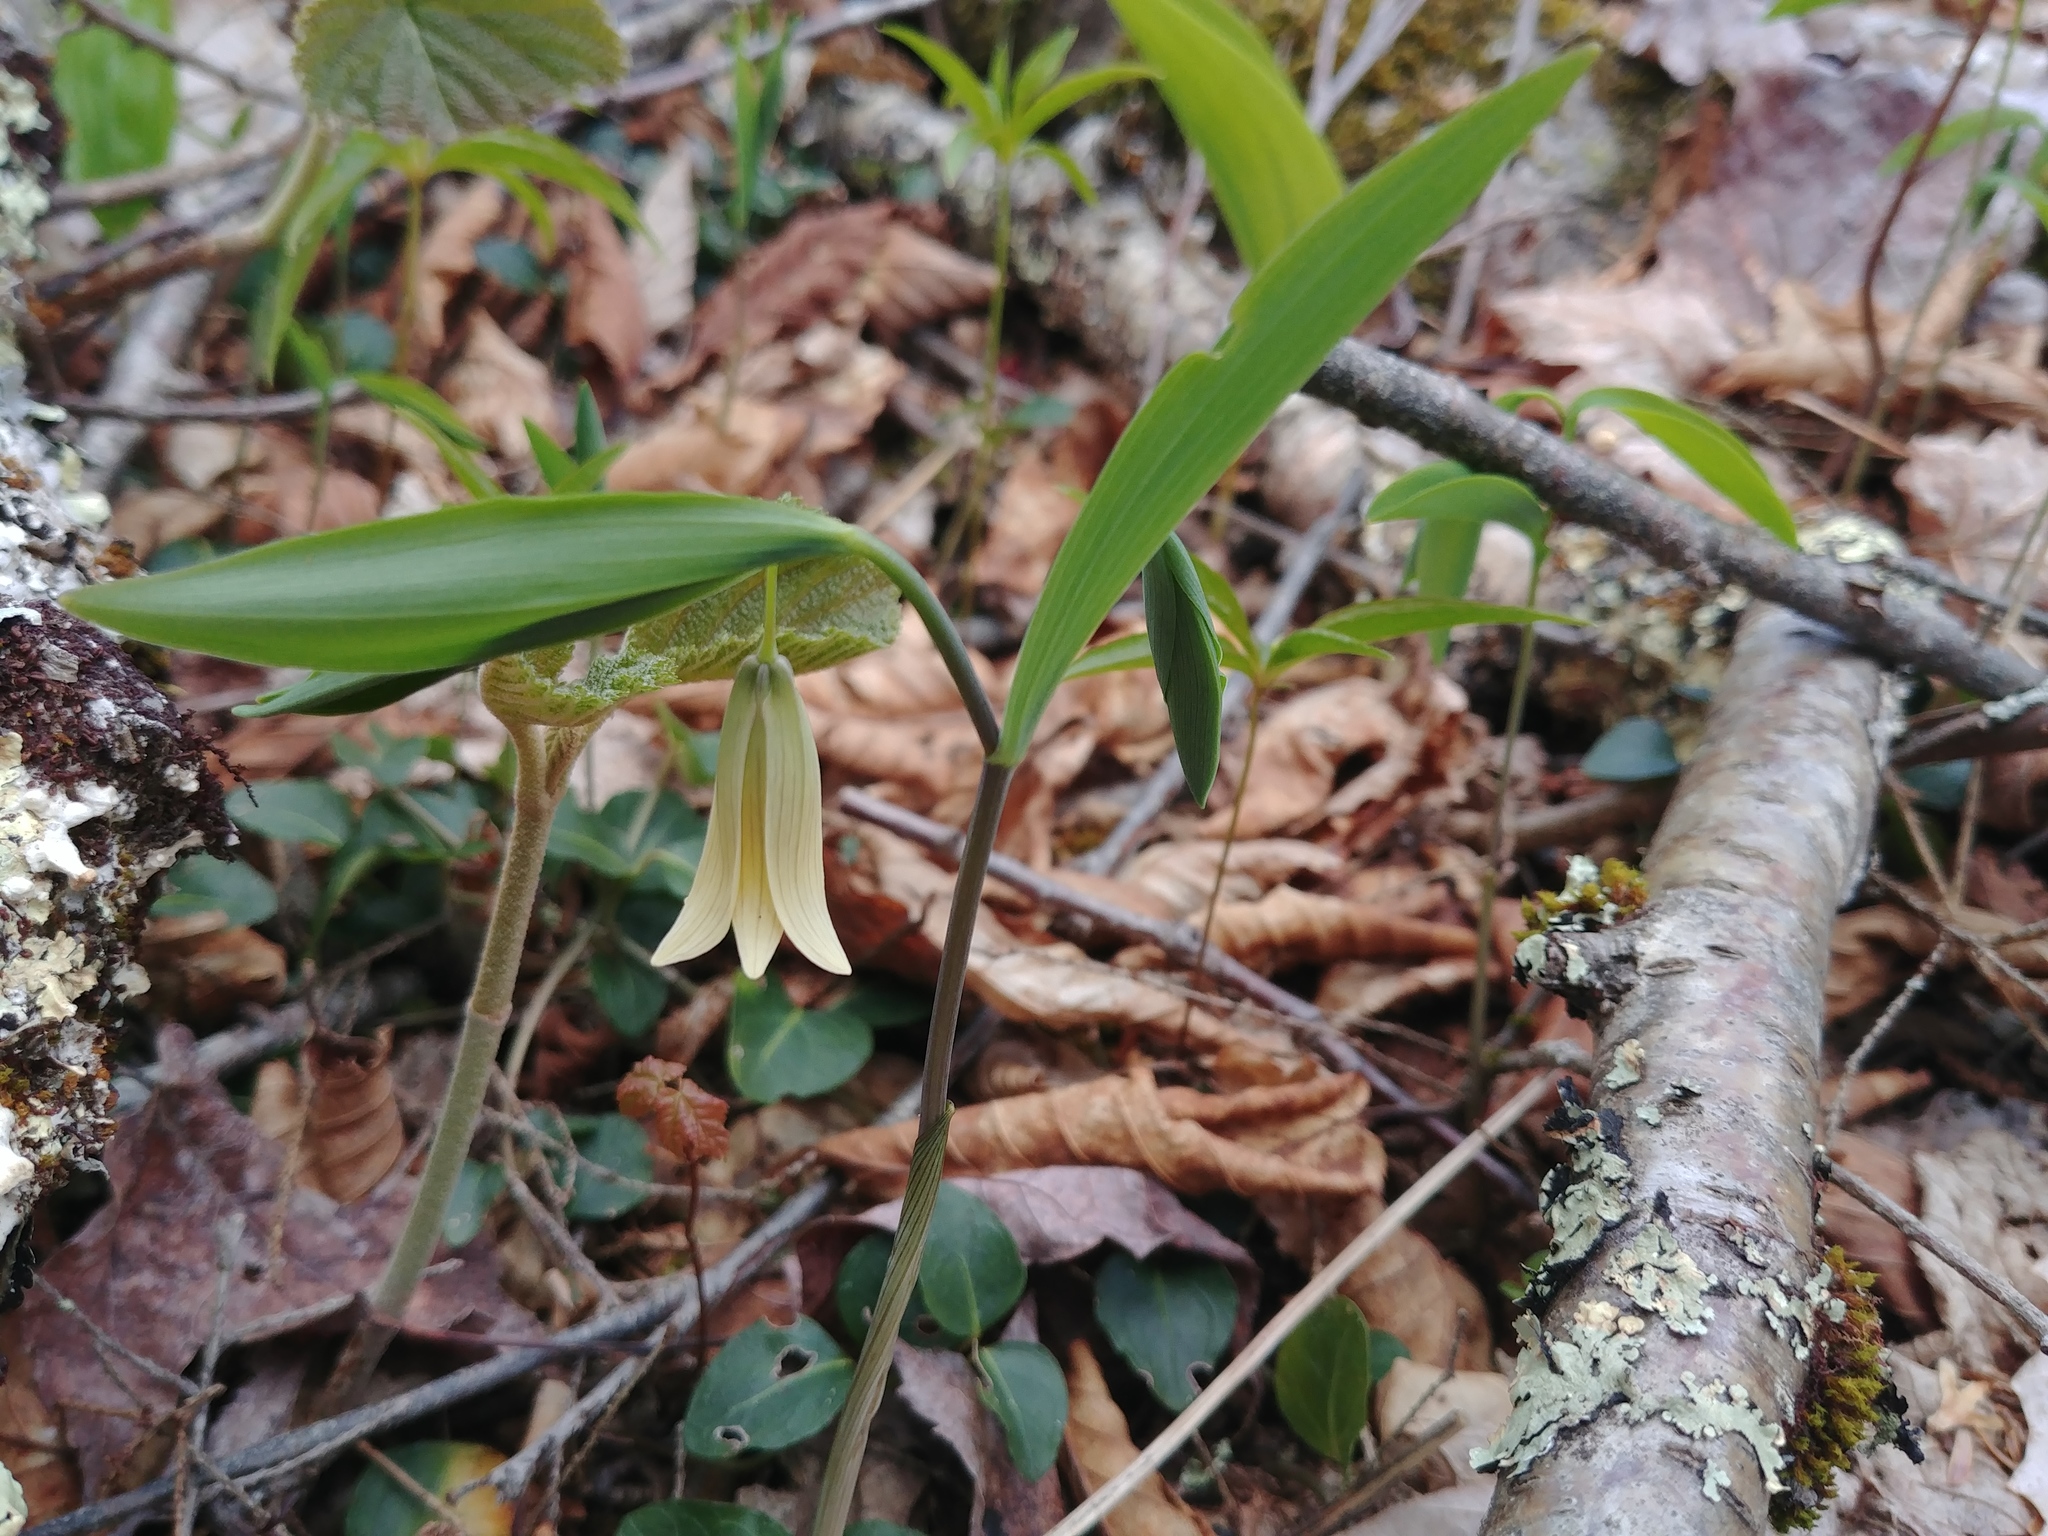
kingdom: Plantae
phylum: Tracheophyta
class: Liliopsida
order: Liliales
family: Colchicaceae
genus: Uvularia
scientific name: Uvularia sessilifolia
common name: Straw-lily
